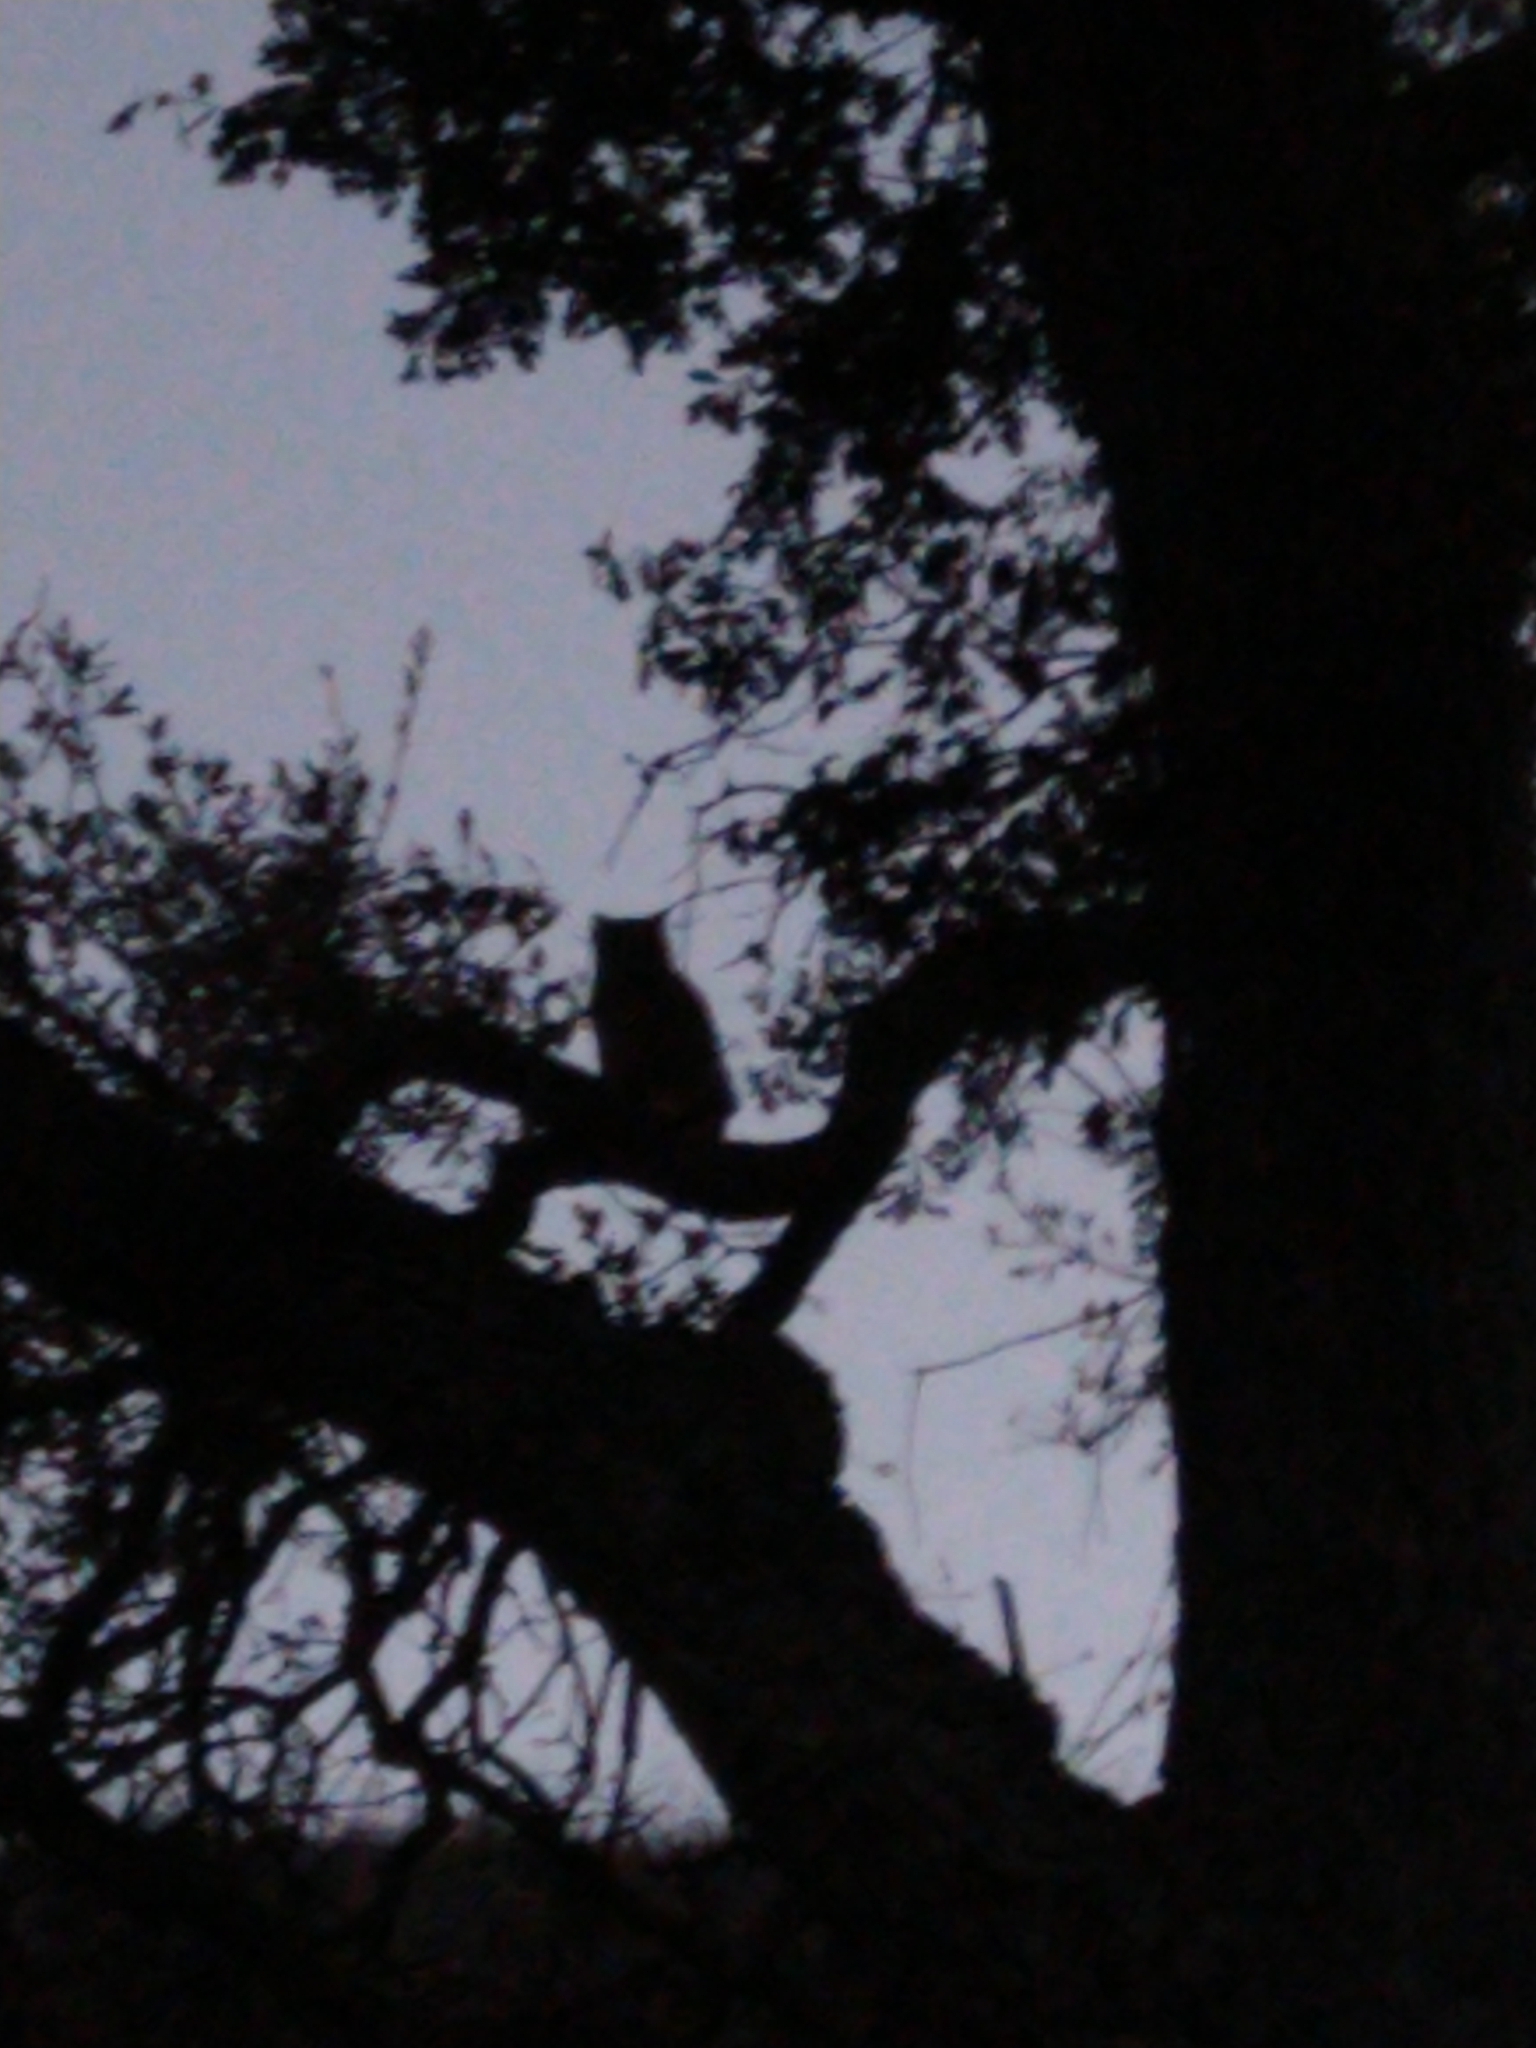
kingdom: Animalia
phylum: Chordata
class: Aves
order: Strigiformes
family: Strigidae
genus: Bubo
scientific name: Bubo virginianus
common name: Great horned owl
